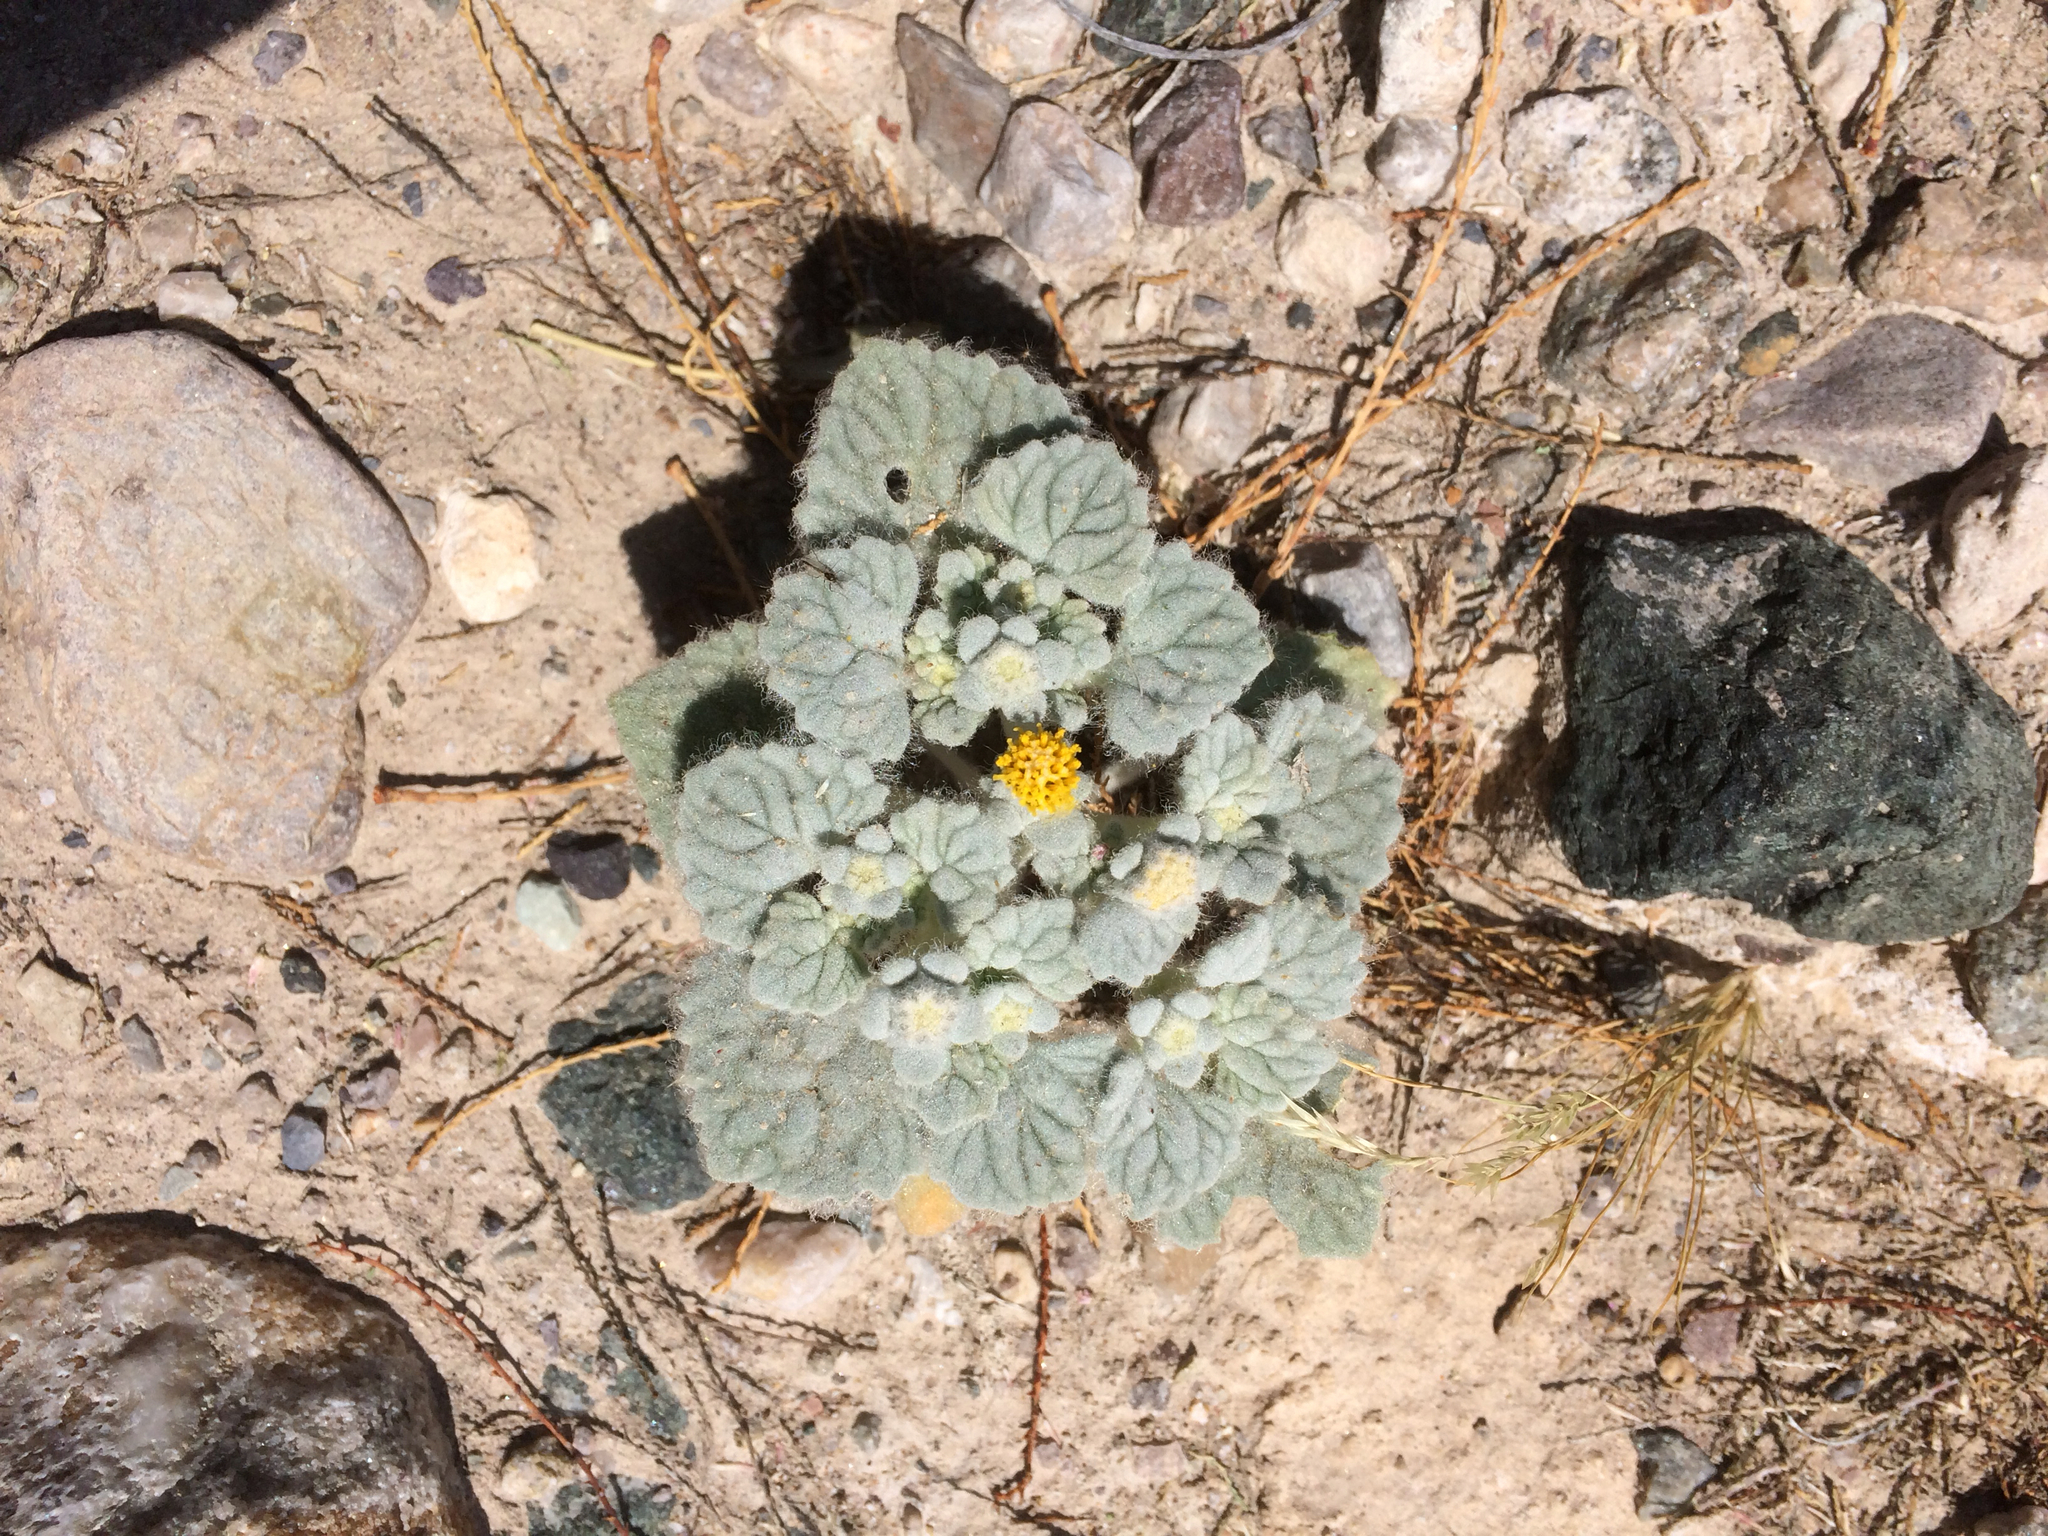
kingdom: Plantae
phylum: Tracheophyta
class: Magnoliopsida
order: Asterales
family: Asteraceae
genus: Psathyrotes
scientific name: Psathyrotes ramosissima
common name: Turtleback
